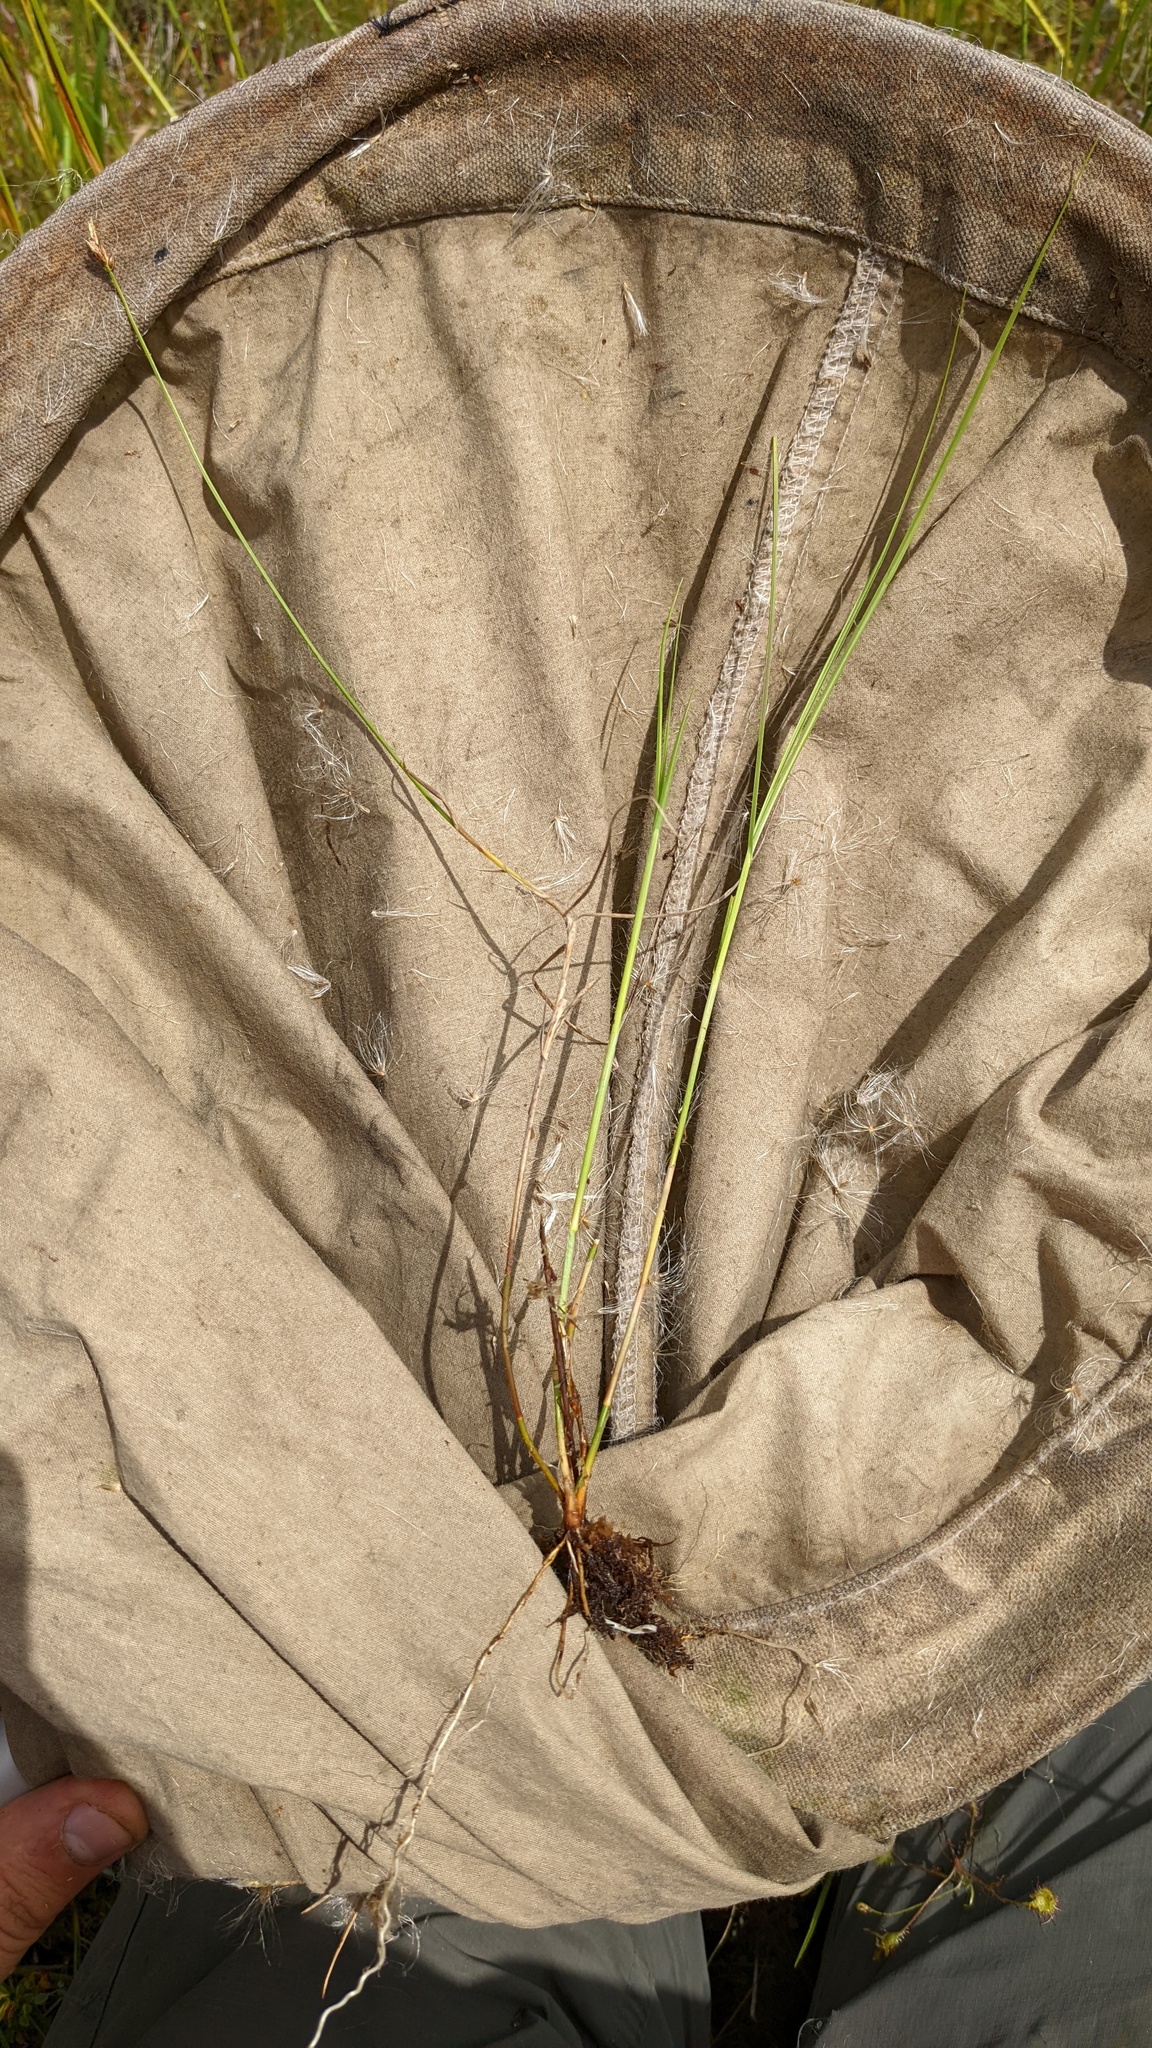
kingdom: Plantae
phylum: Tracheophyta
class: Liliopsida
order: Poales
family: Cyperaceae
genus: Carex
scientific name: Carex chordorrhiza
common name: String sedge
